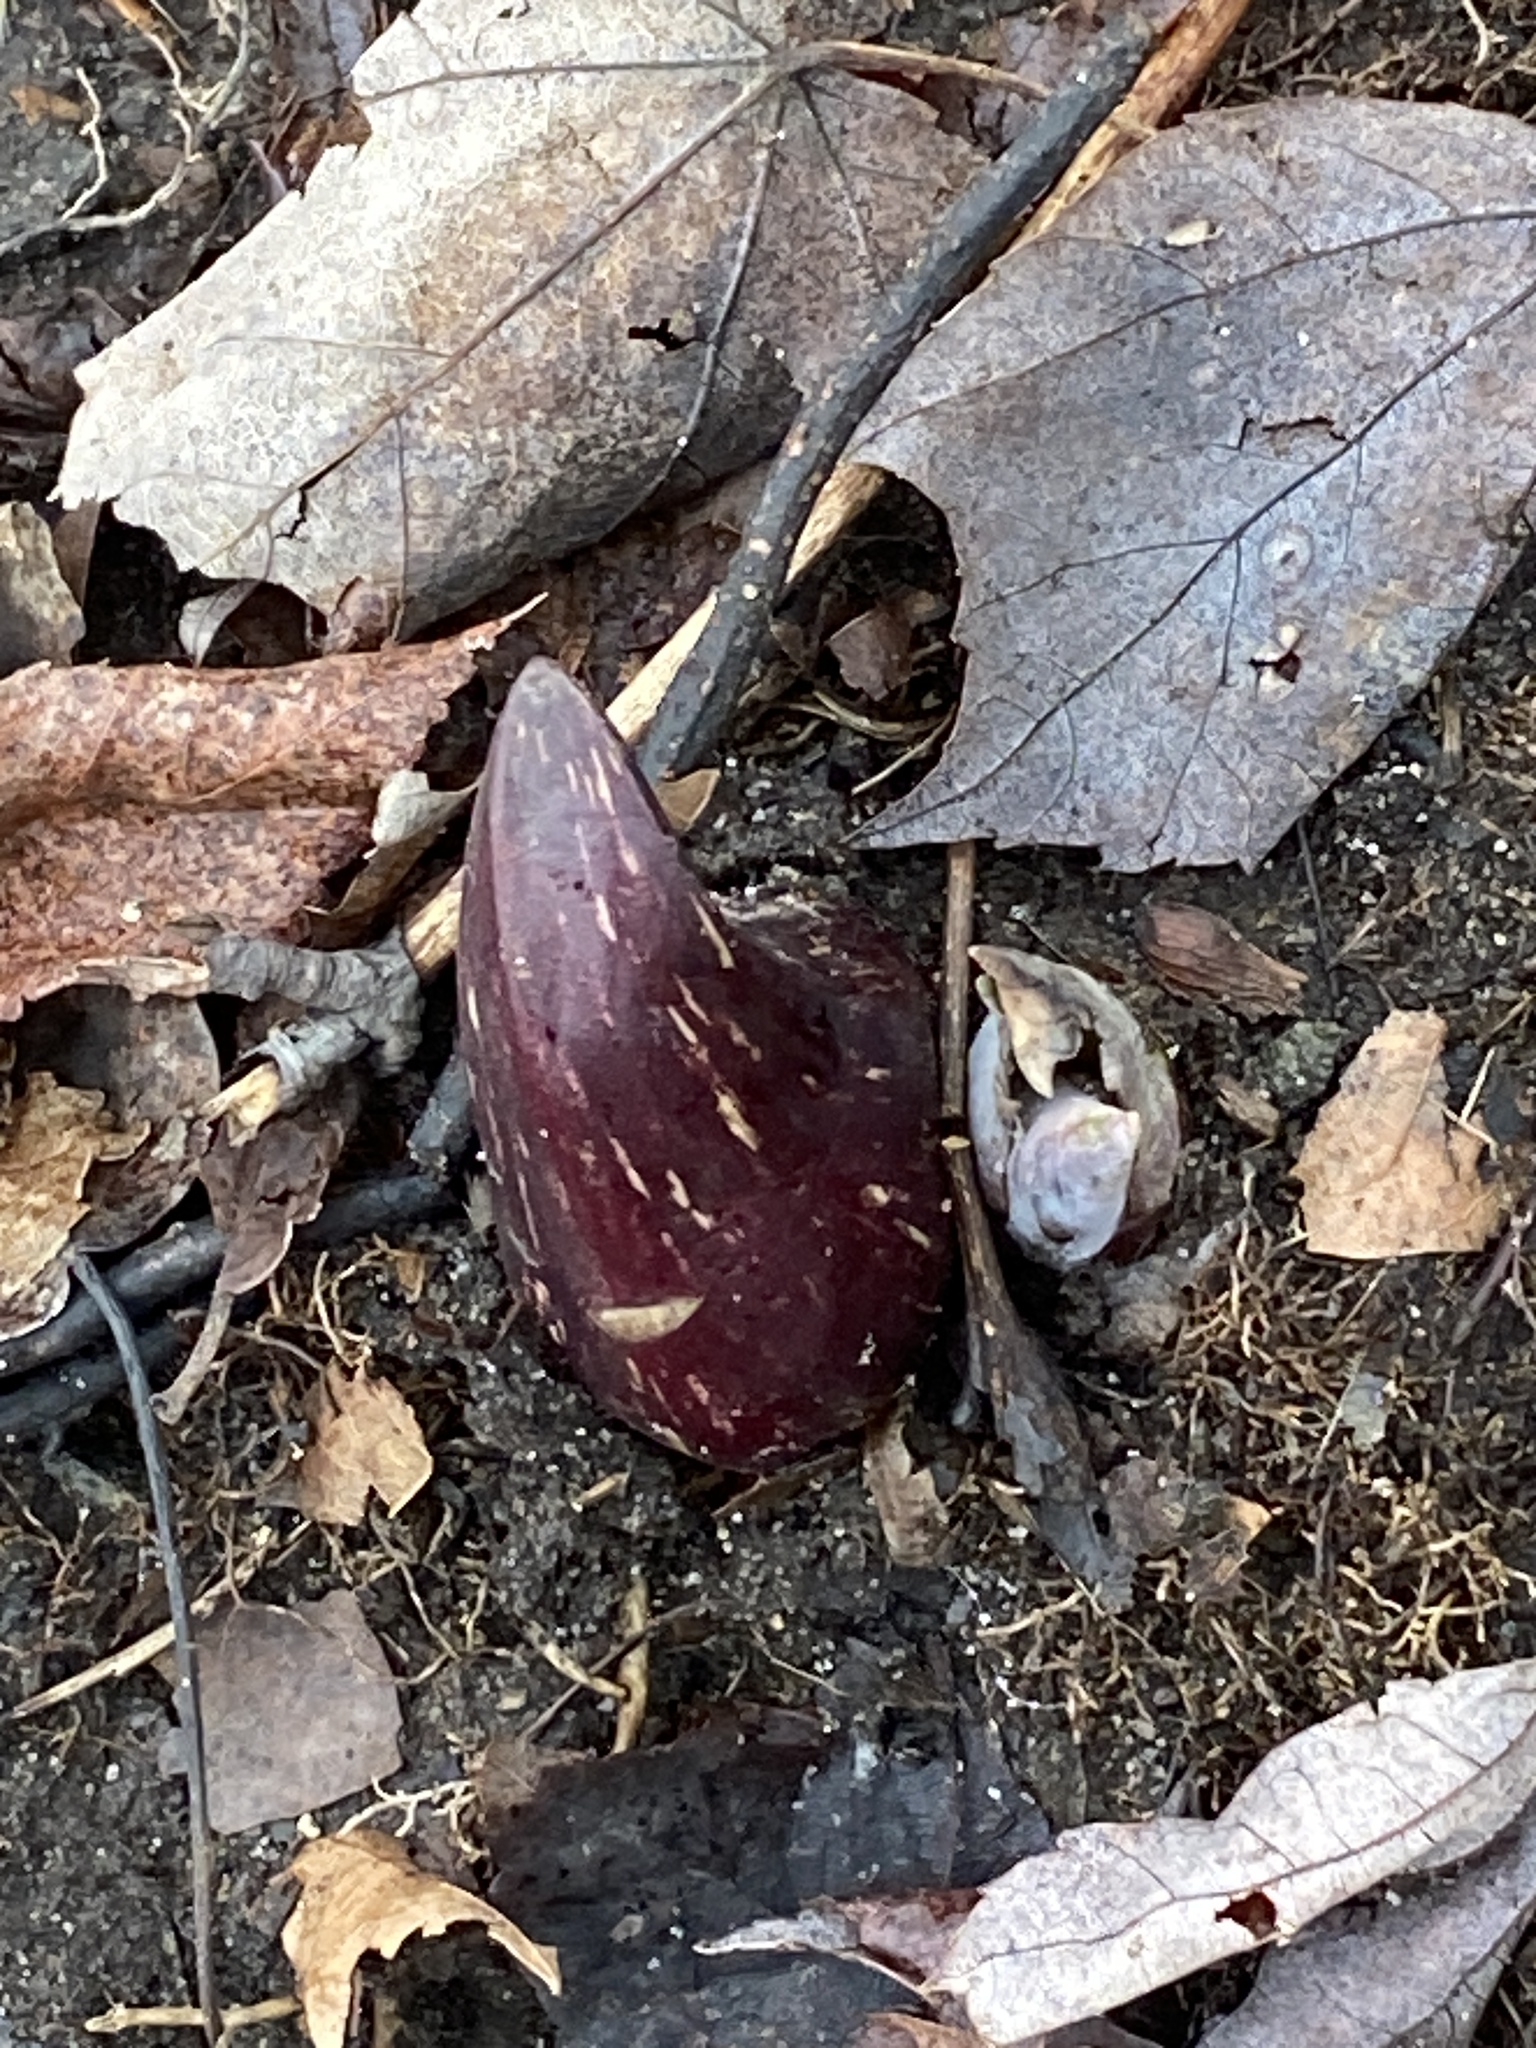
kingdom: Plantae
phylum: Tracheophyta
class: Liliopsida
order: Alismatales
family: Araceae
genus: Symplocarpus
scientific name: Symplocarpus foetidus
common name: Eastern skunk cabbage
